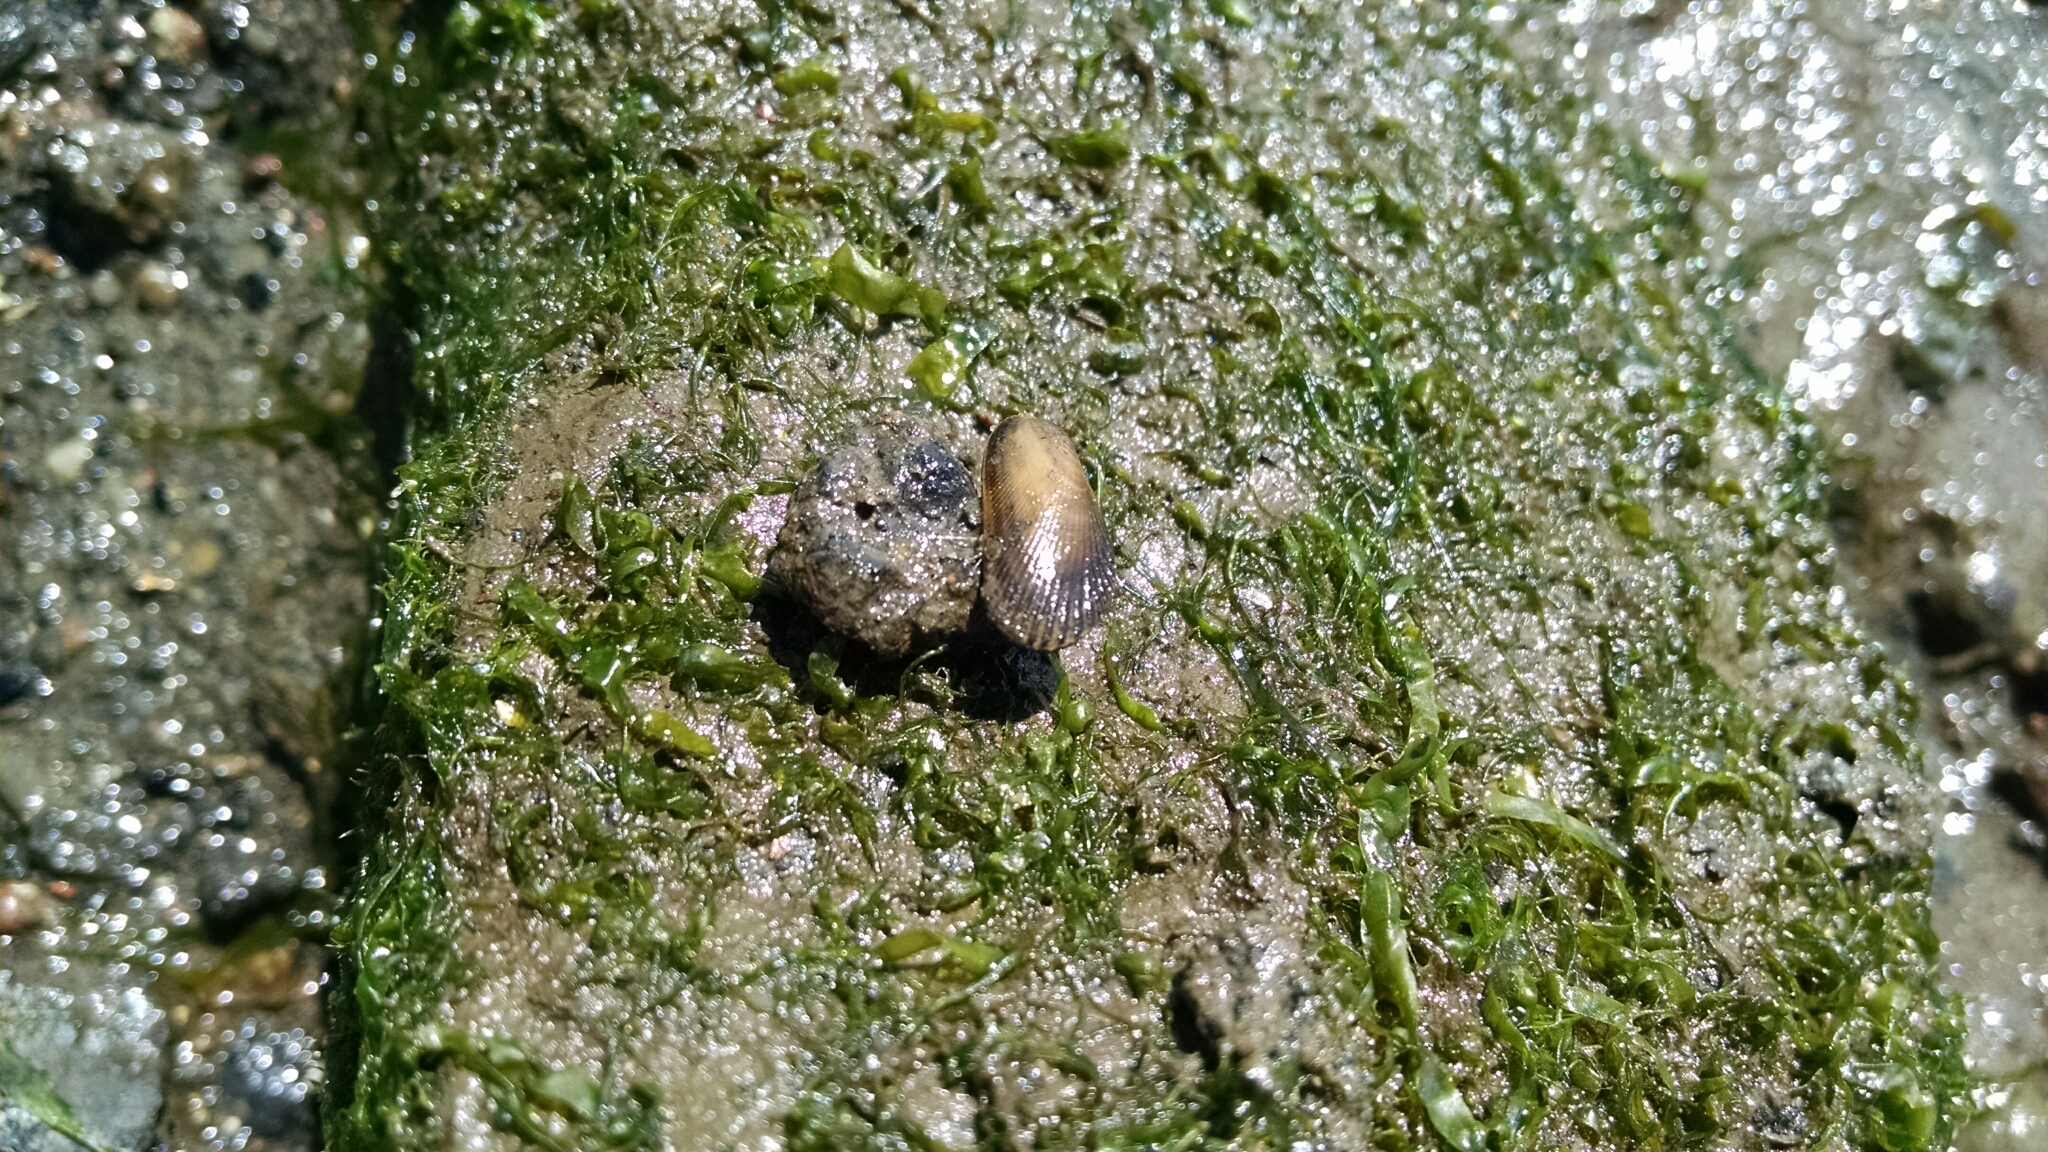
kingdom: Animalia
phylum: Mollusca
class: Bivalvia
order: Mytilida
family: Mytilidae
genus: Geukensia
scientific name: Geukensia demissa
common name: Ribbed mussel
